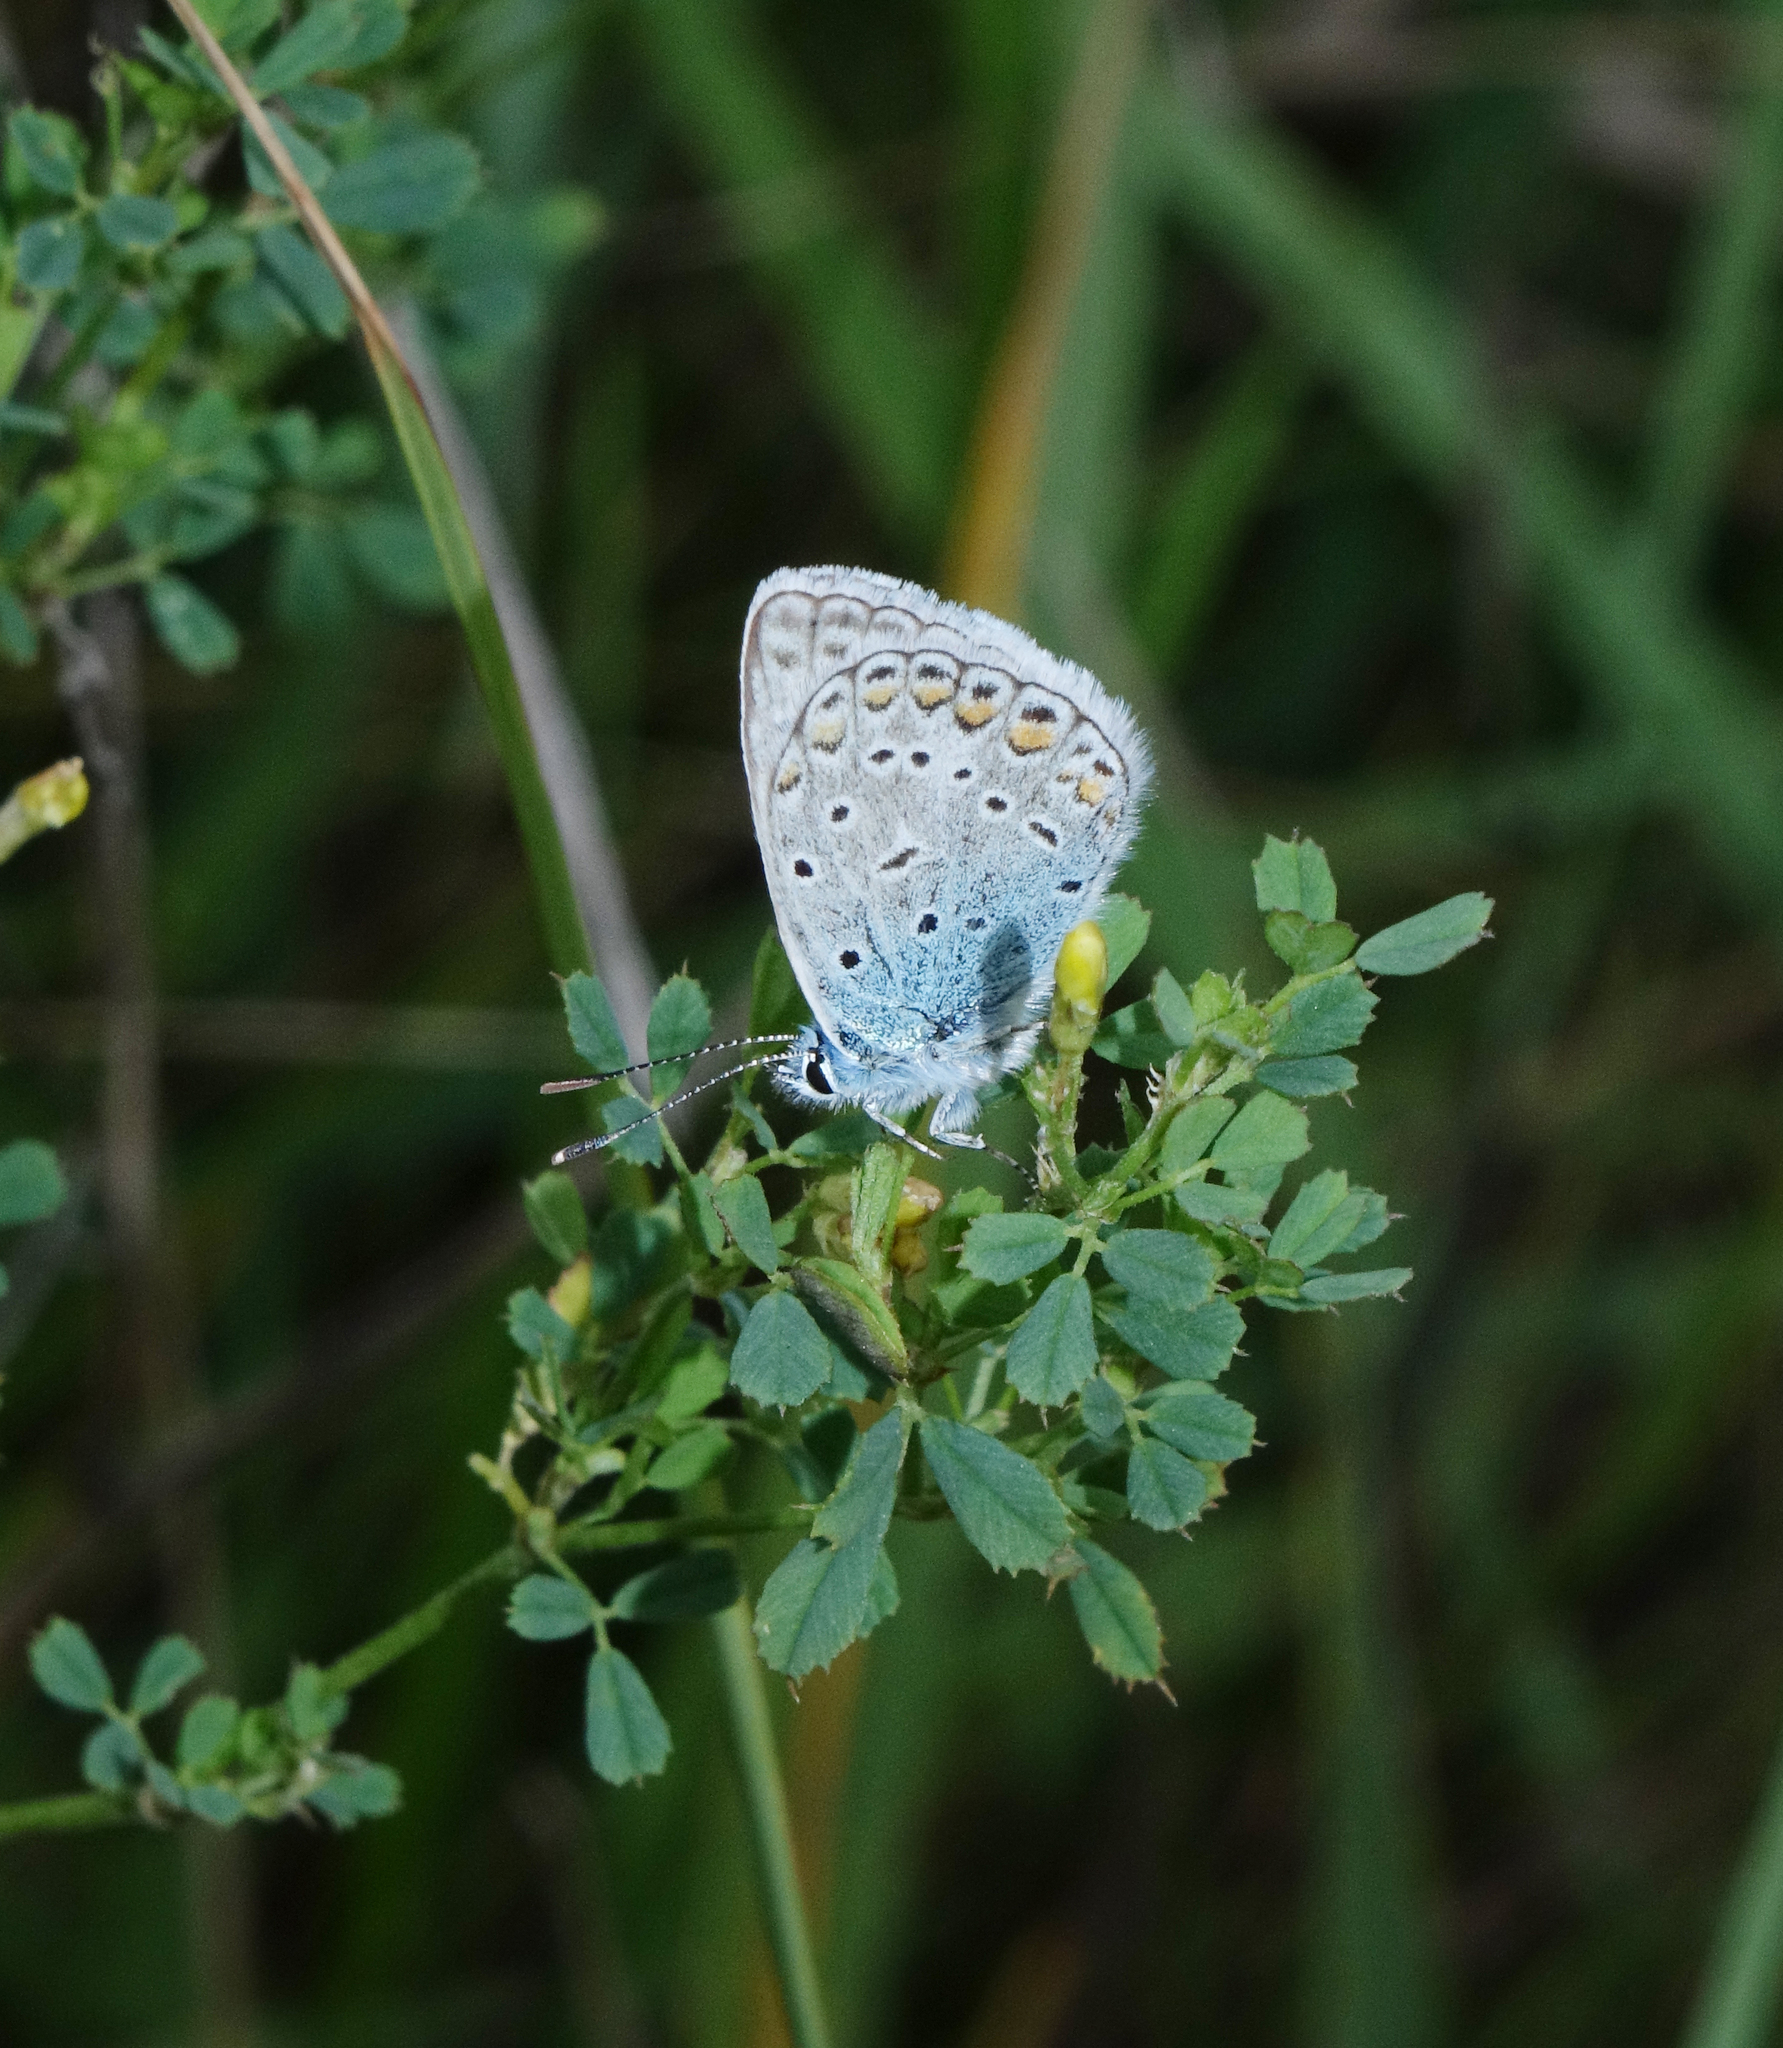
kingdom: Animalia
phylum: Arthropoda
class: Insecta
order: Lepidoptera
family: Lycaenidae
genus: Polyommatus
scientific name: Polyommatus icarus
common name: Common blue
